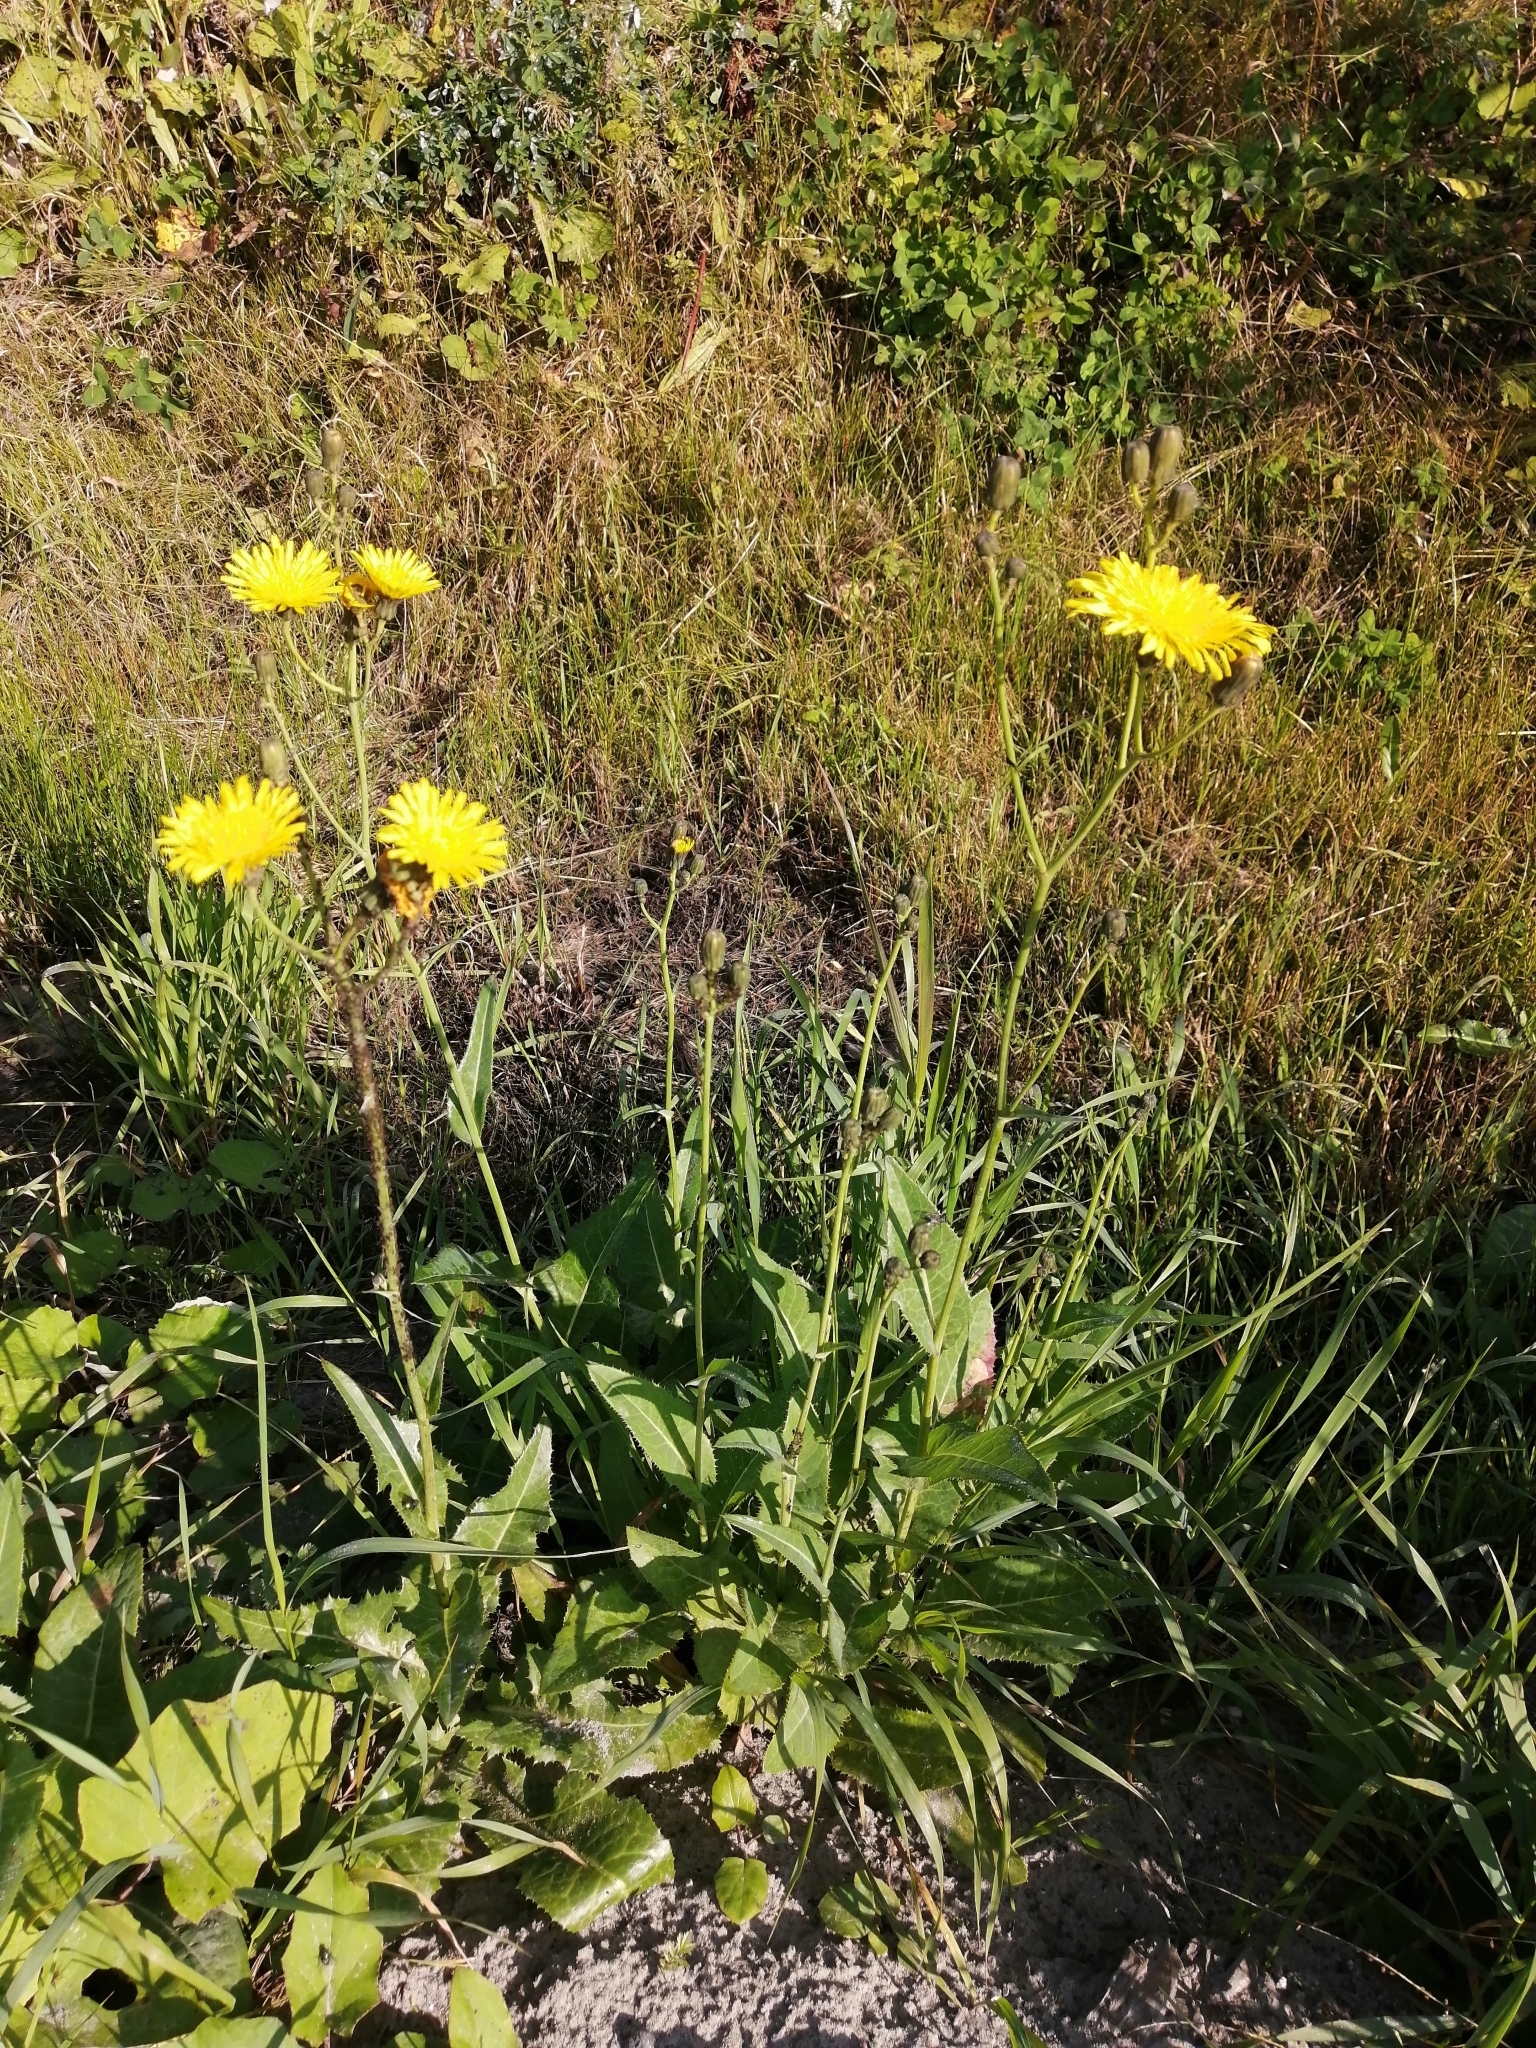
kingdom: Plantae
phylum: Tracheophyta
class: Magnoliopsida
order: Asterales
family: Asteraceae
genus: Sonchus
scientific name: Sonchus arvensis
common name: Perennial sow-thistle
